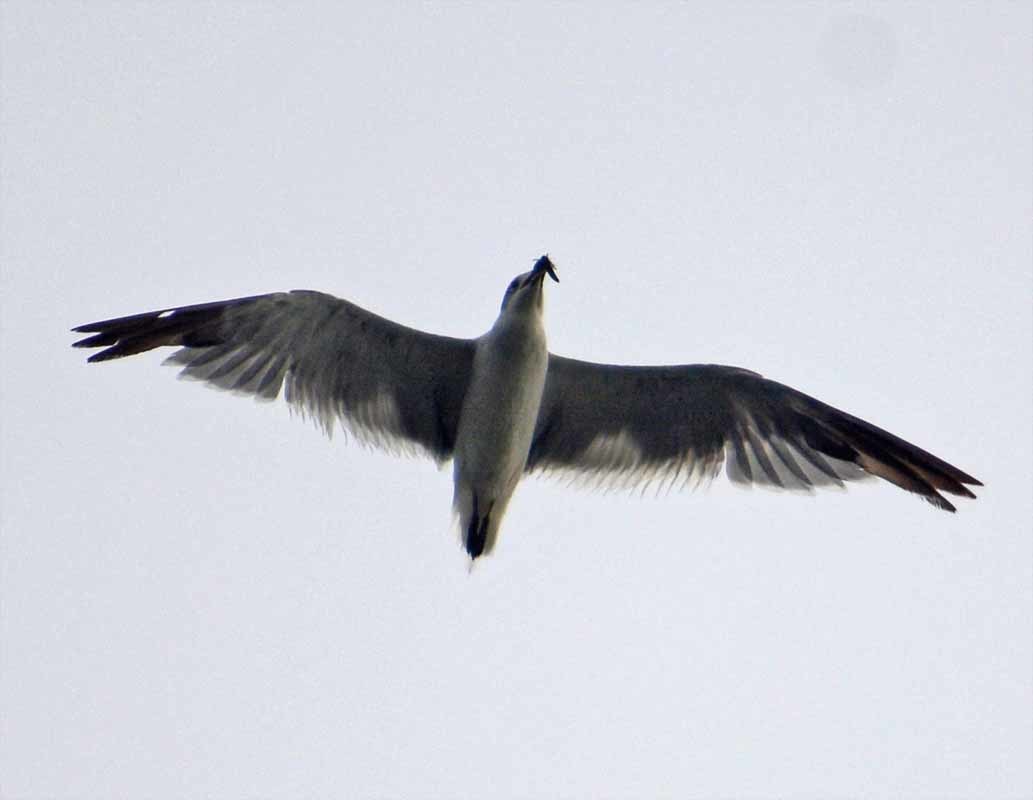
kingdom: Animalia
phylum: Chordata
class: Aves
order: Charadriiformes
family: Laridae
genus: Leucophaeus
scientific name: Leucophaeus atricilla
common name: Laughing gull
